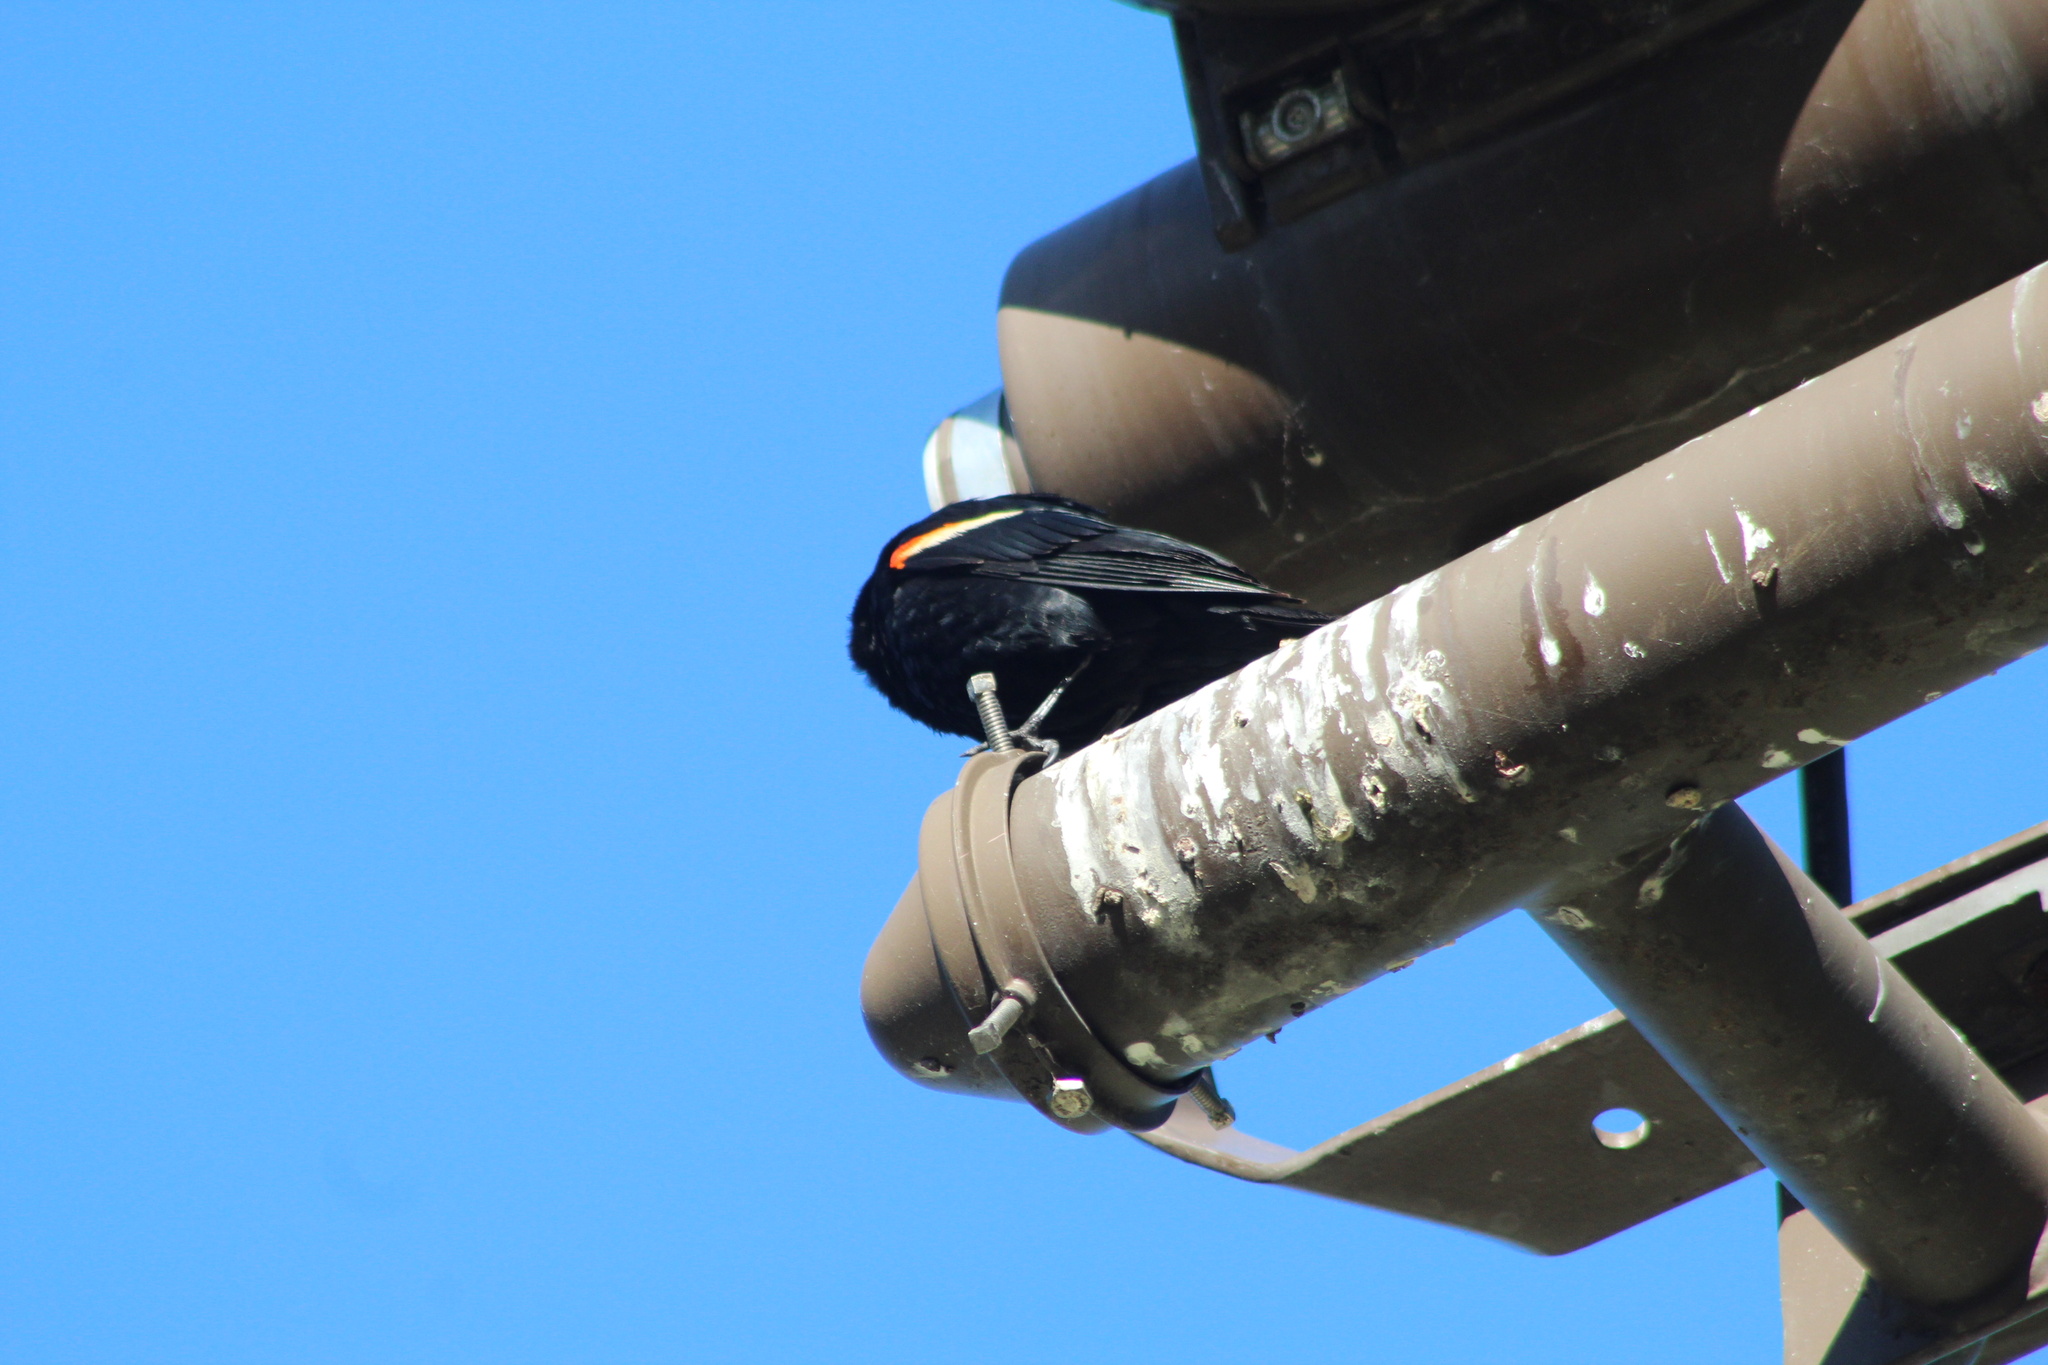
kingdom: Animalia
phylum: Chordata
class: Aves
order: Passeriformes
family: Icteridae
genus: Agelaius
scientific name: Agelaius phoeniceus
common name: Red-winged blackbird
